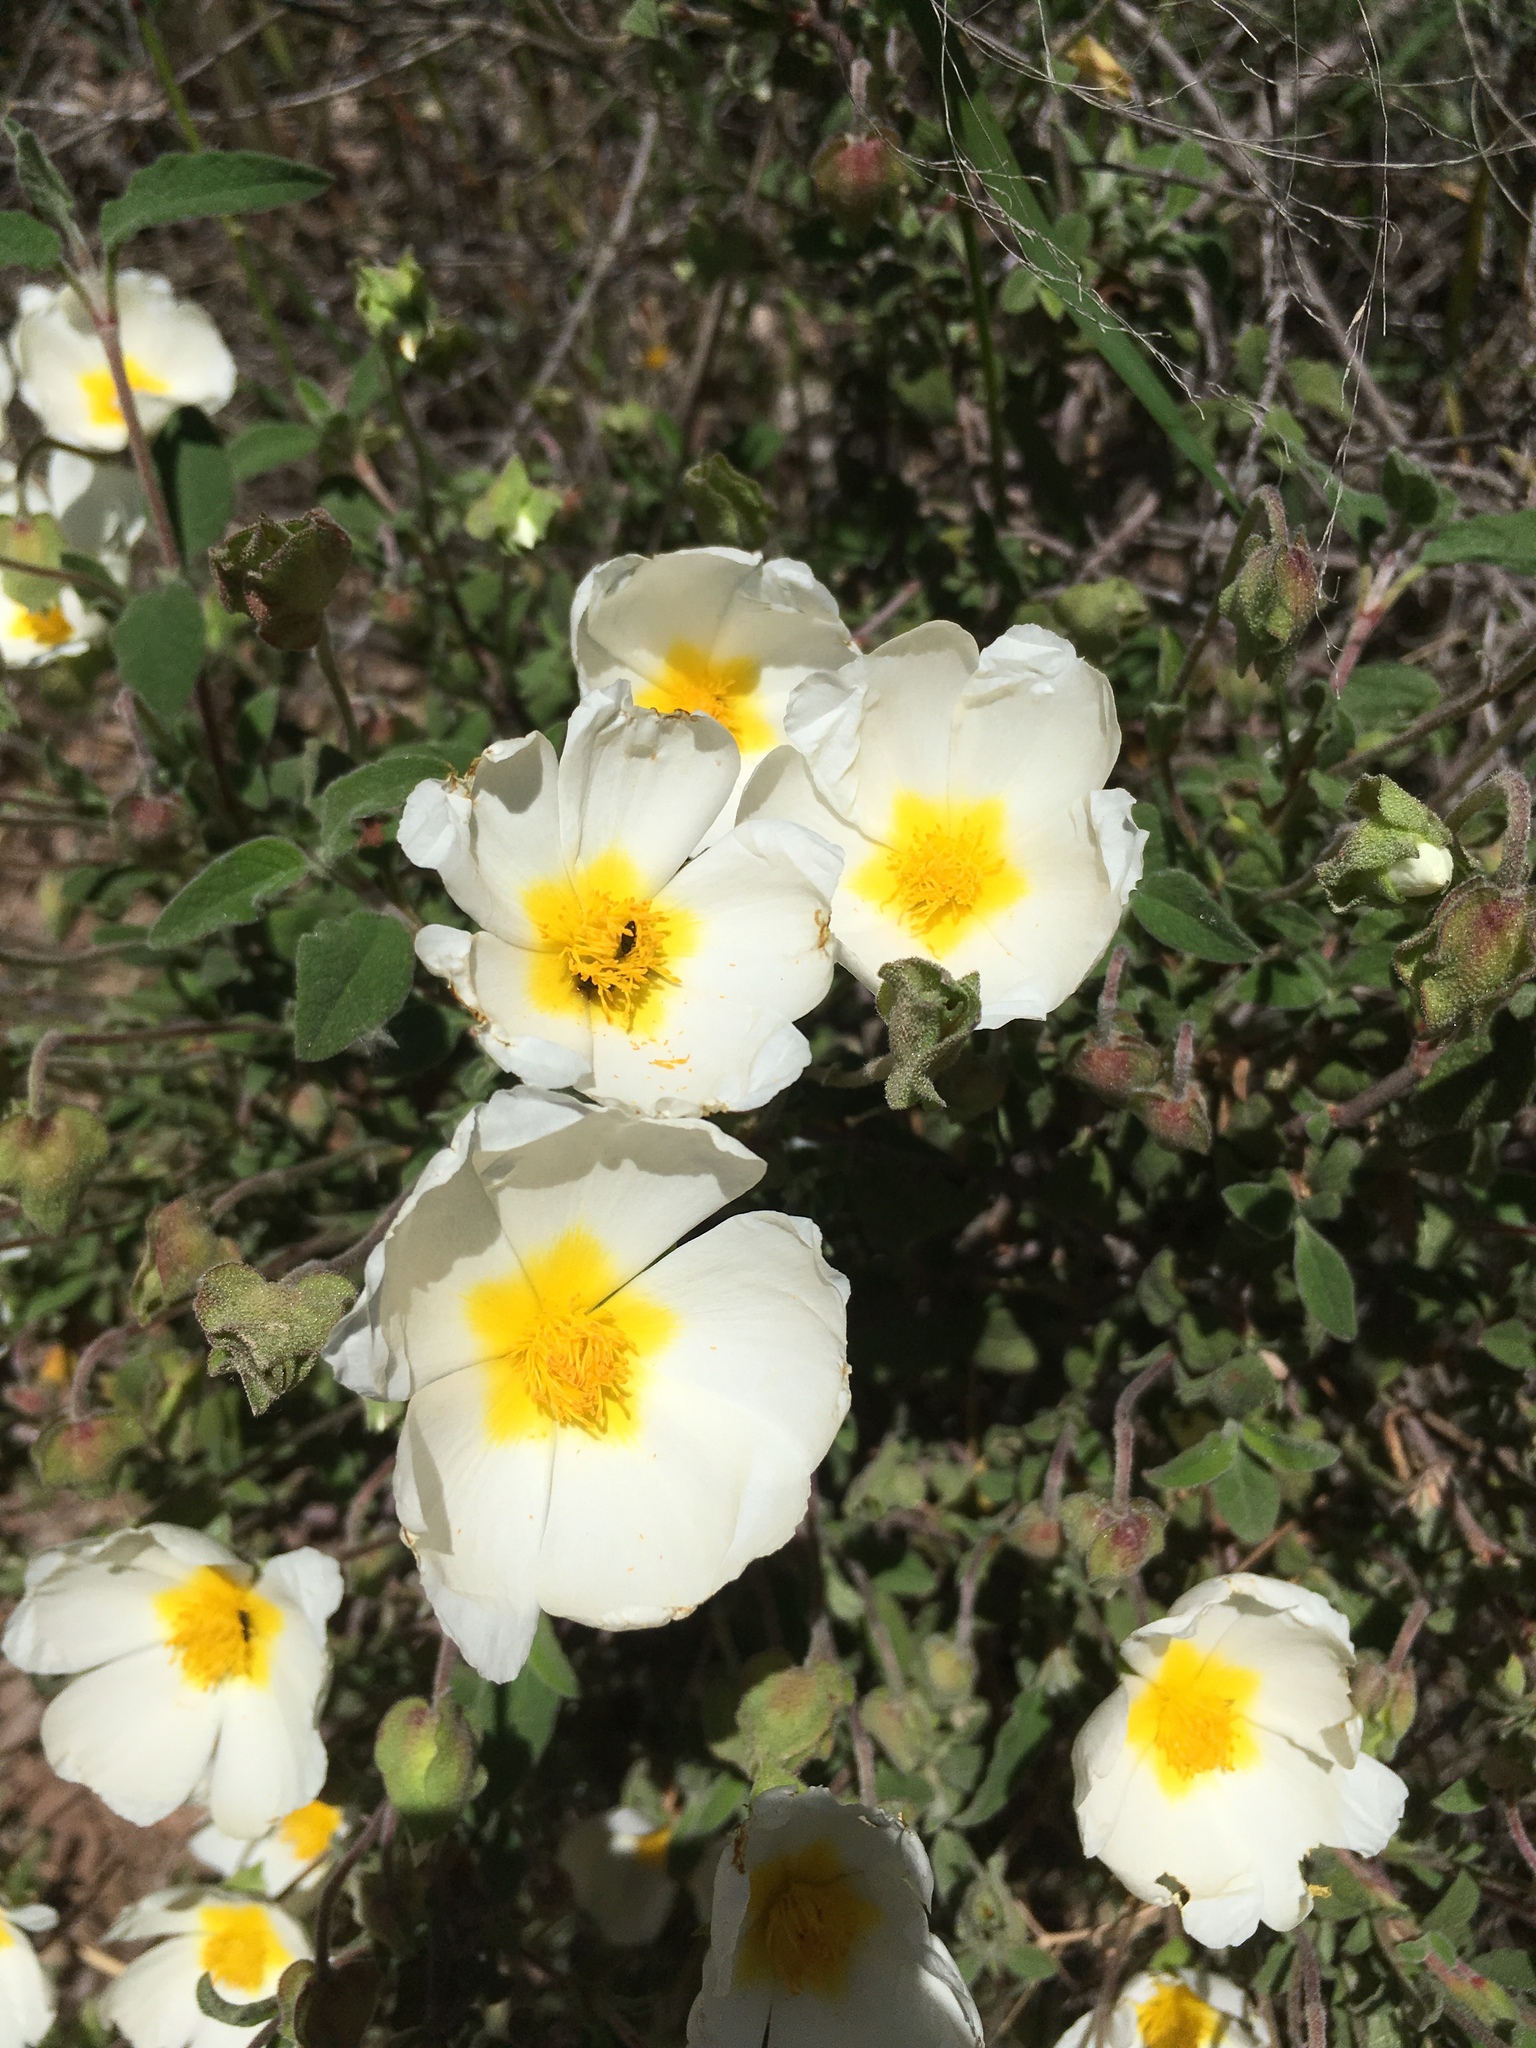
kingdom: Plantae
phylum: Tracheophyta
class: Magnoliopsida
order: Malvales
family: Cistaceae
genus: Cistus
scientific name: Cistus salviifolius
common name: Salvia cistus
